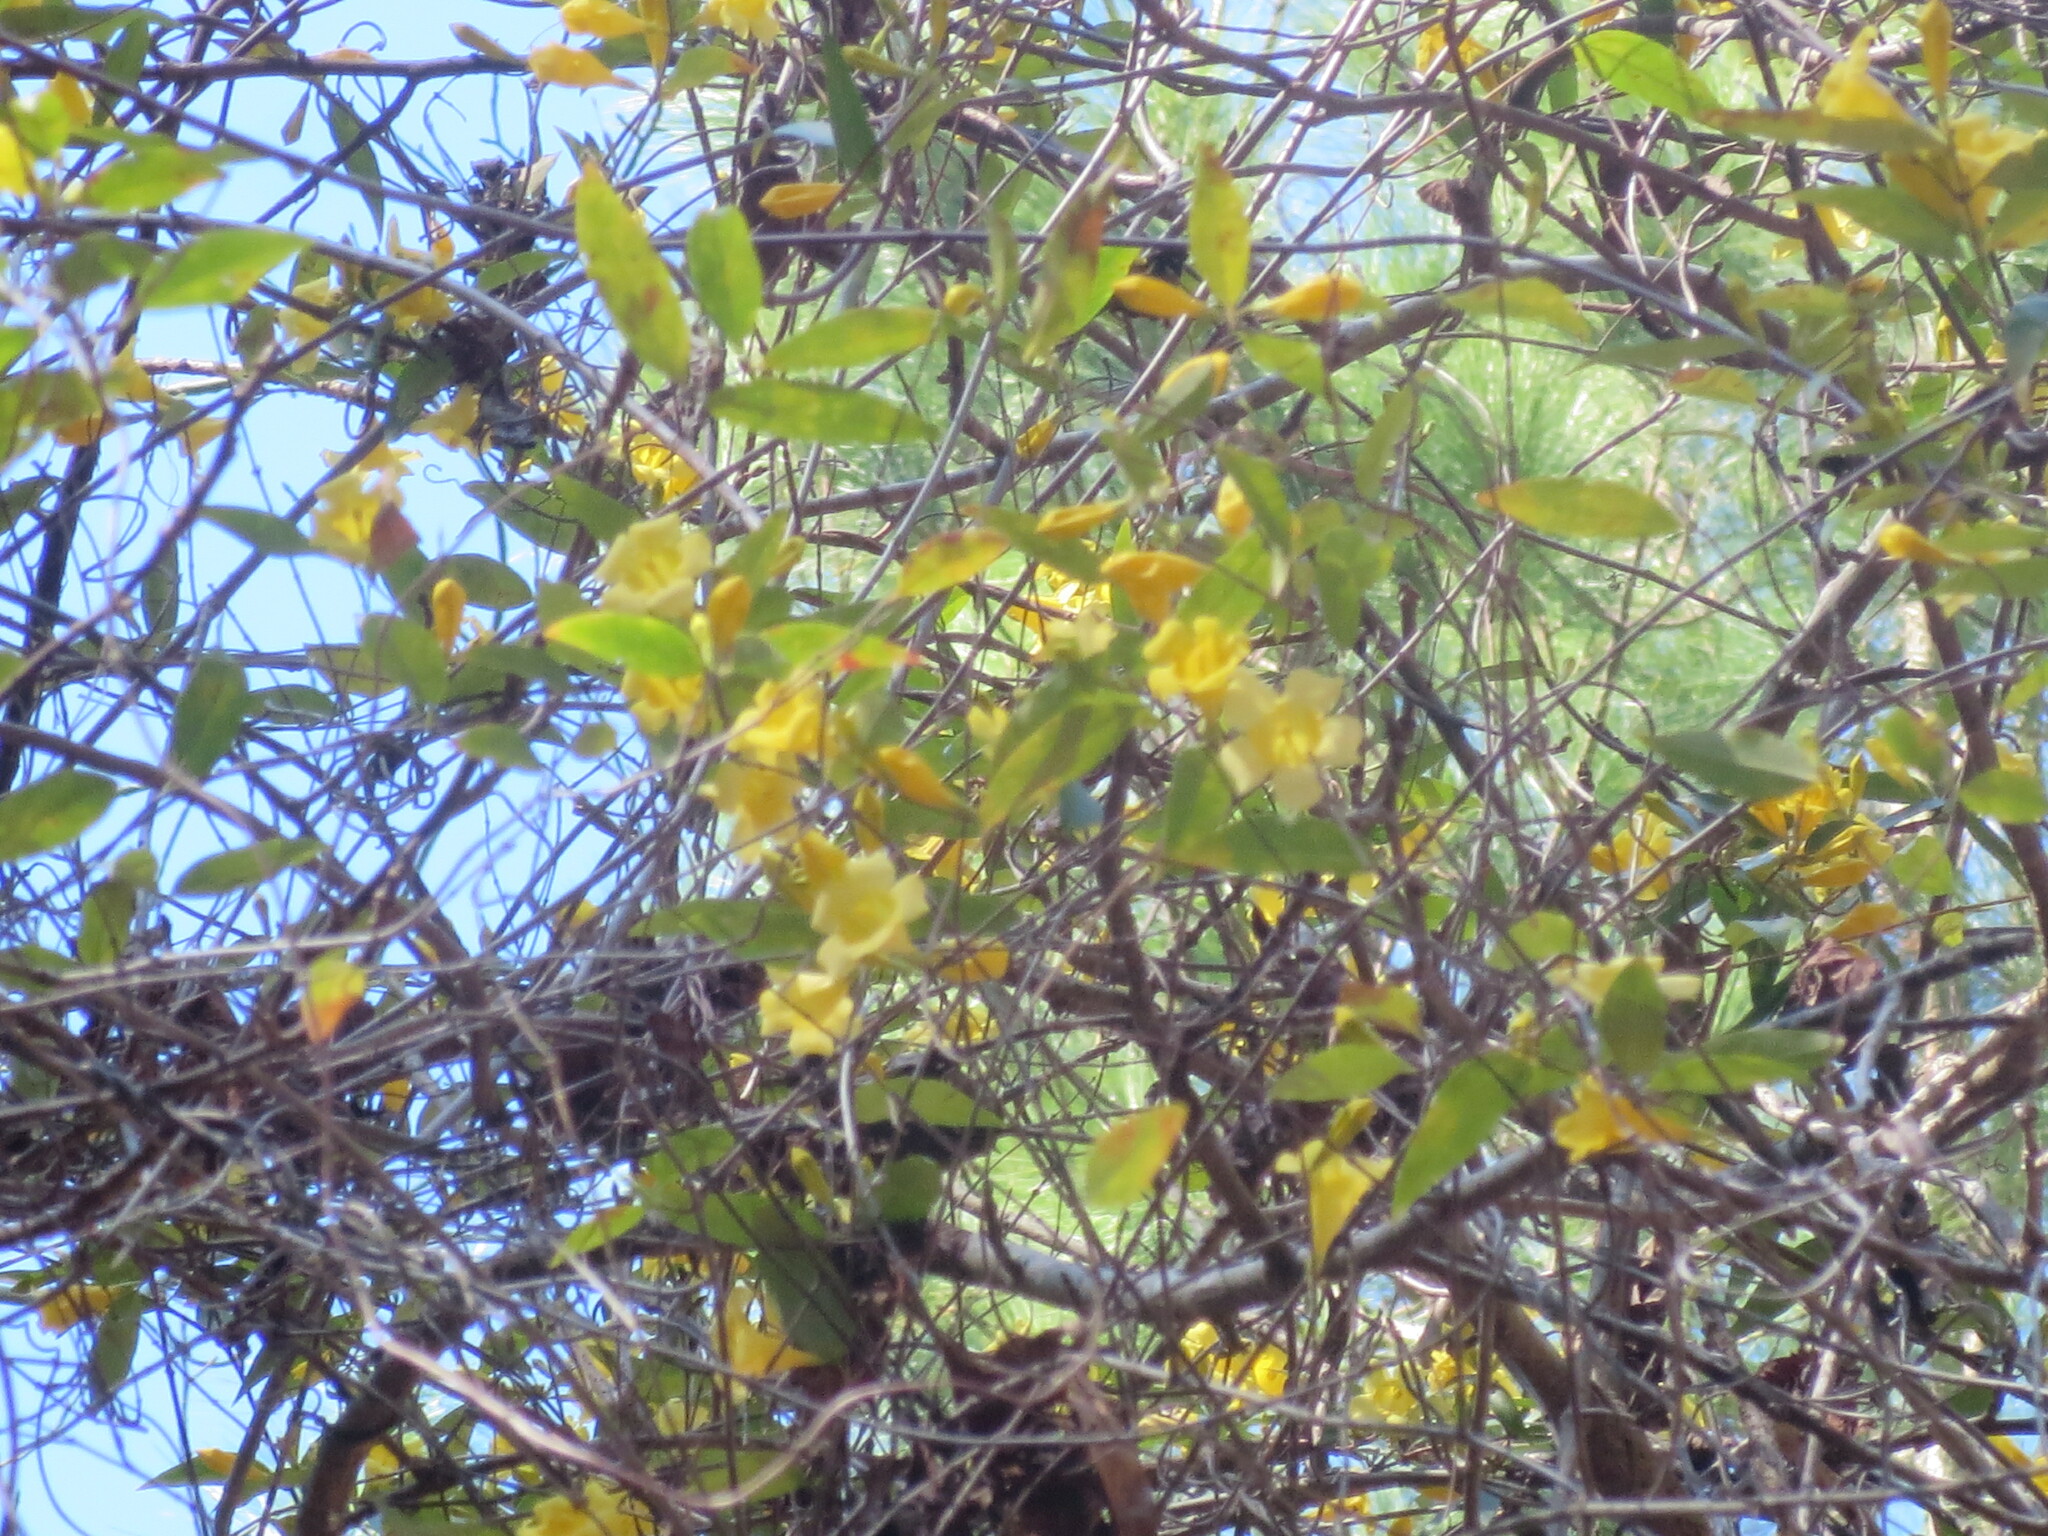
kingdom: Plantae
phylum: Tracheophyta
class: Magnoliopsida
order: Gentianales
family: Gelsemiaceae
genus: Gelsemium
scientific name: Gelsemium sempervirens
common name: Carolina-jasmine
